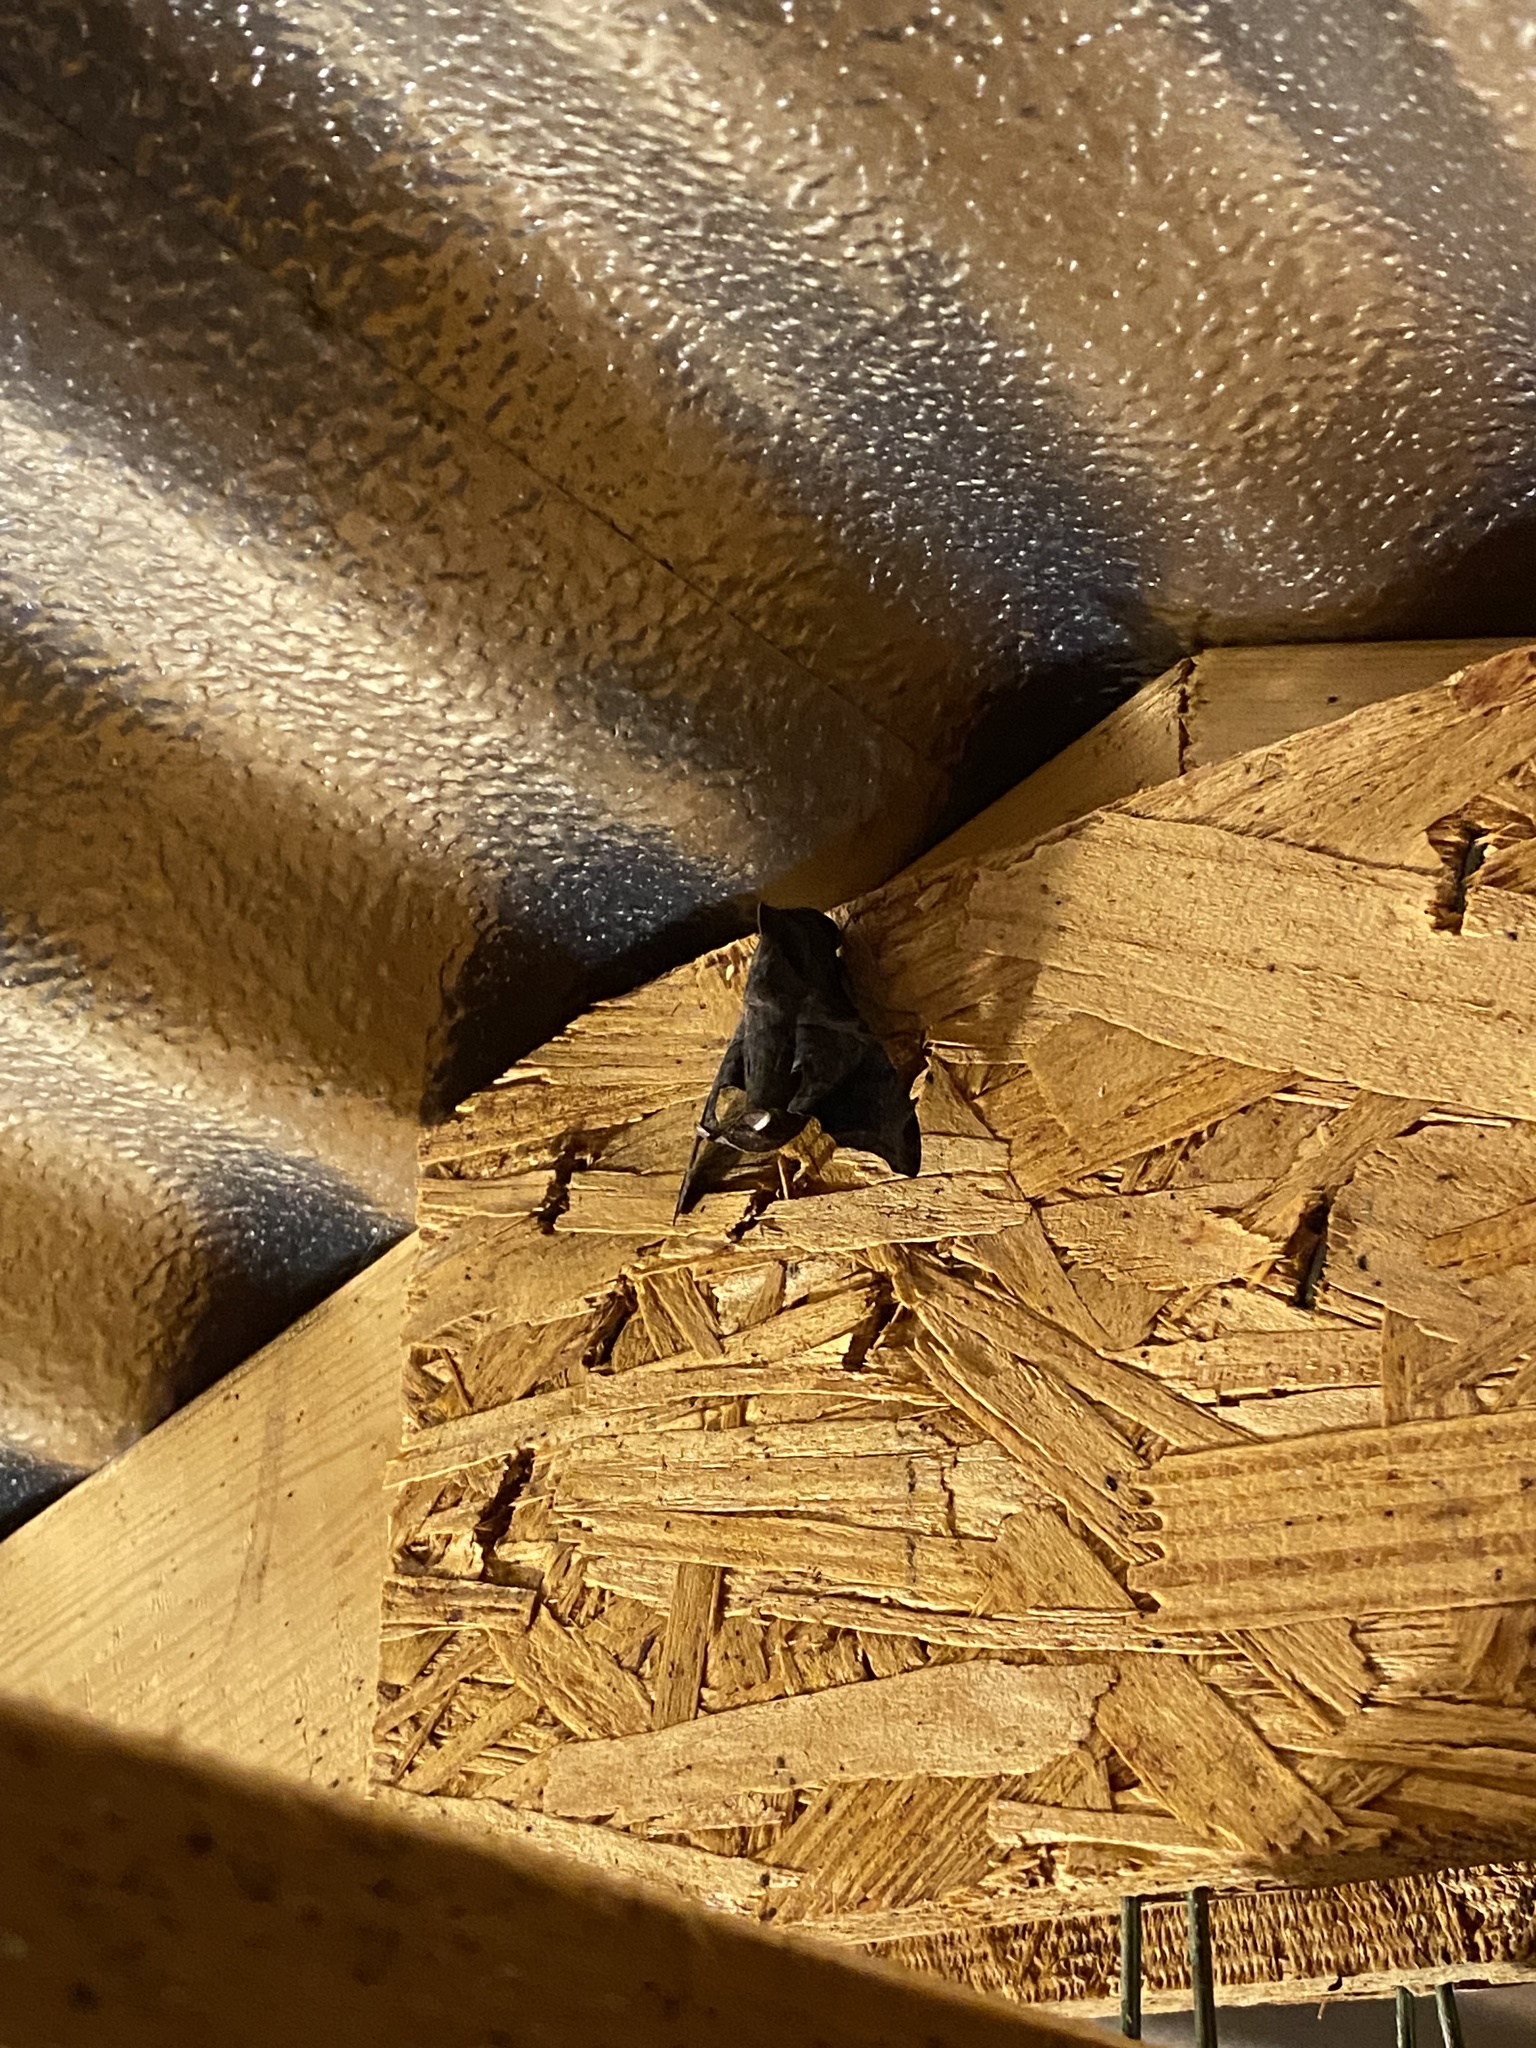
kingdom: Animalia
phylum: Arthropoda
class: Insecta
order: Lepidoptera
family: Sphingidae
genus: Enyo
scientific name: Enyo lugubris
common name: Mournful sphinx
